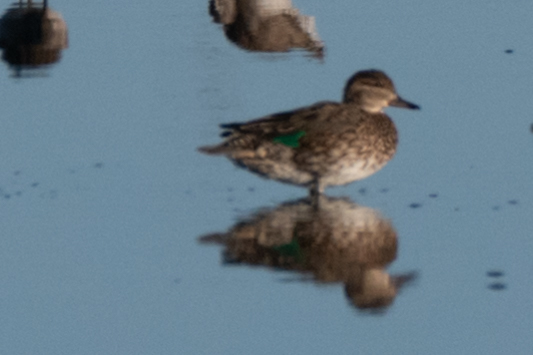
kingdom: Animalia
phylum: Chordata
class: Aves
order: Anseriformes
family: Anatidae
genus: Anas
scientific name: Anas crecca
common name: Eurasian teal
